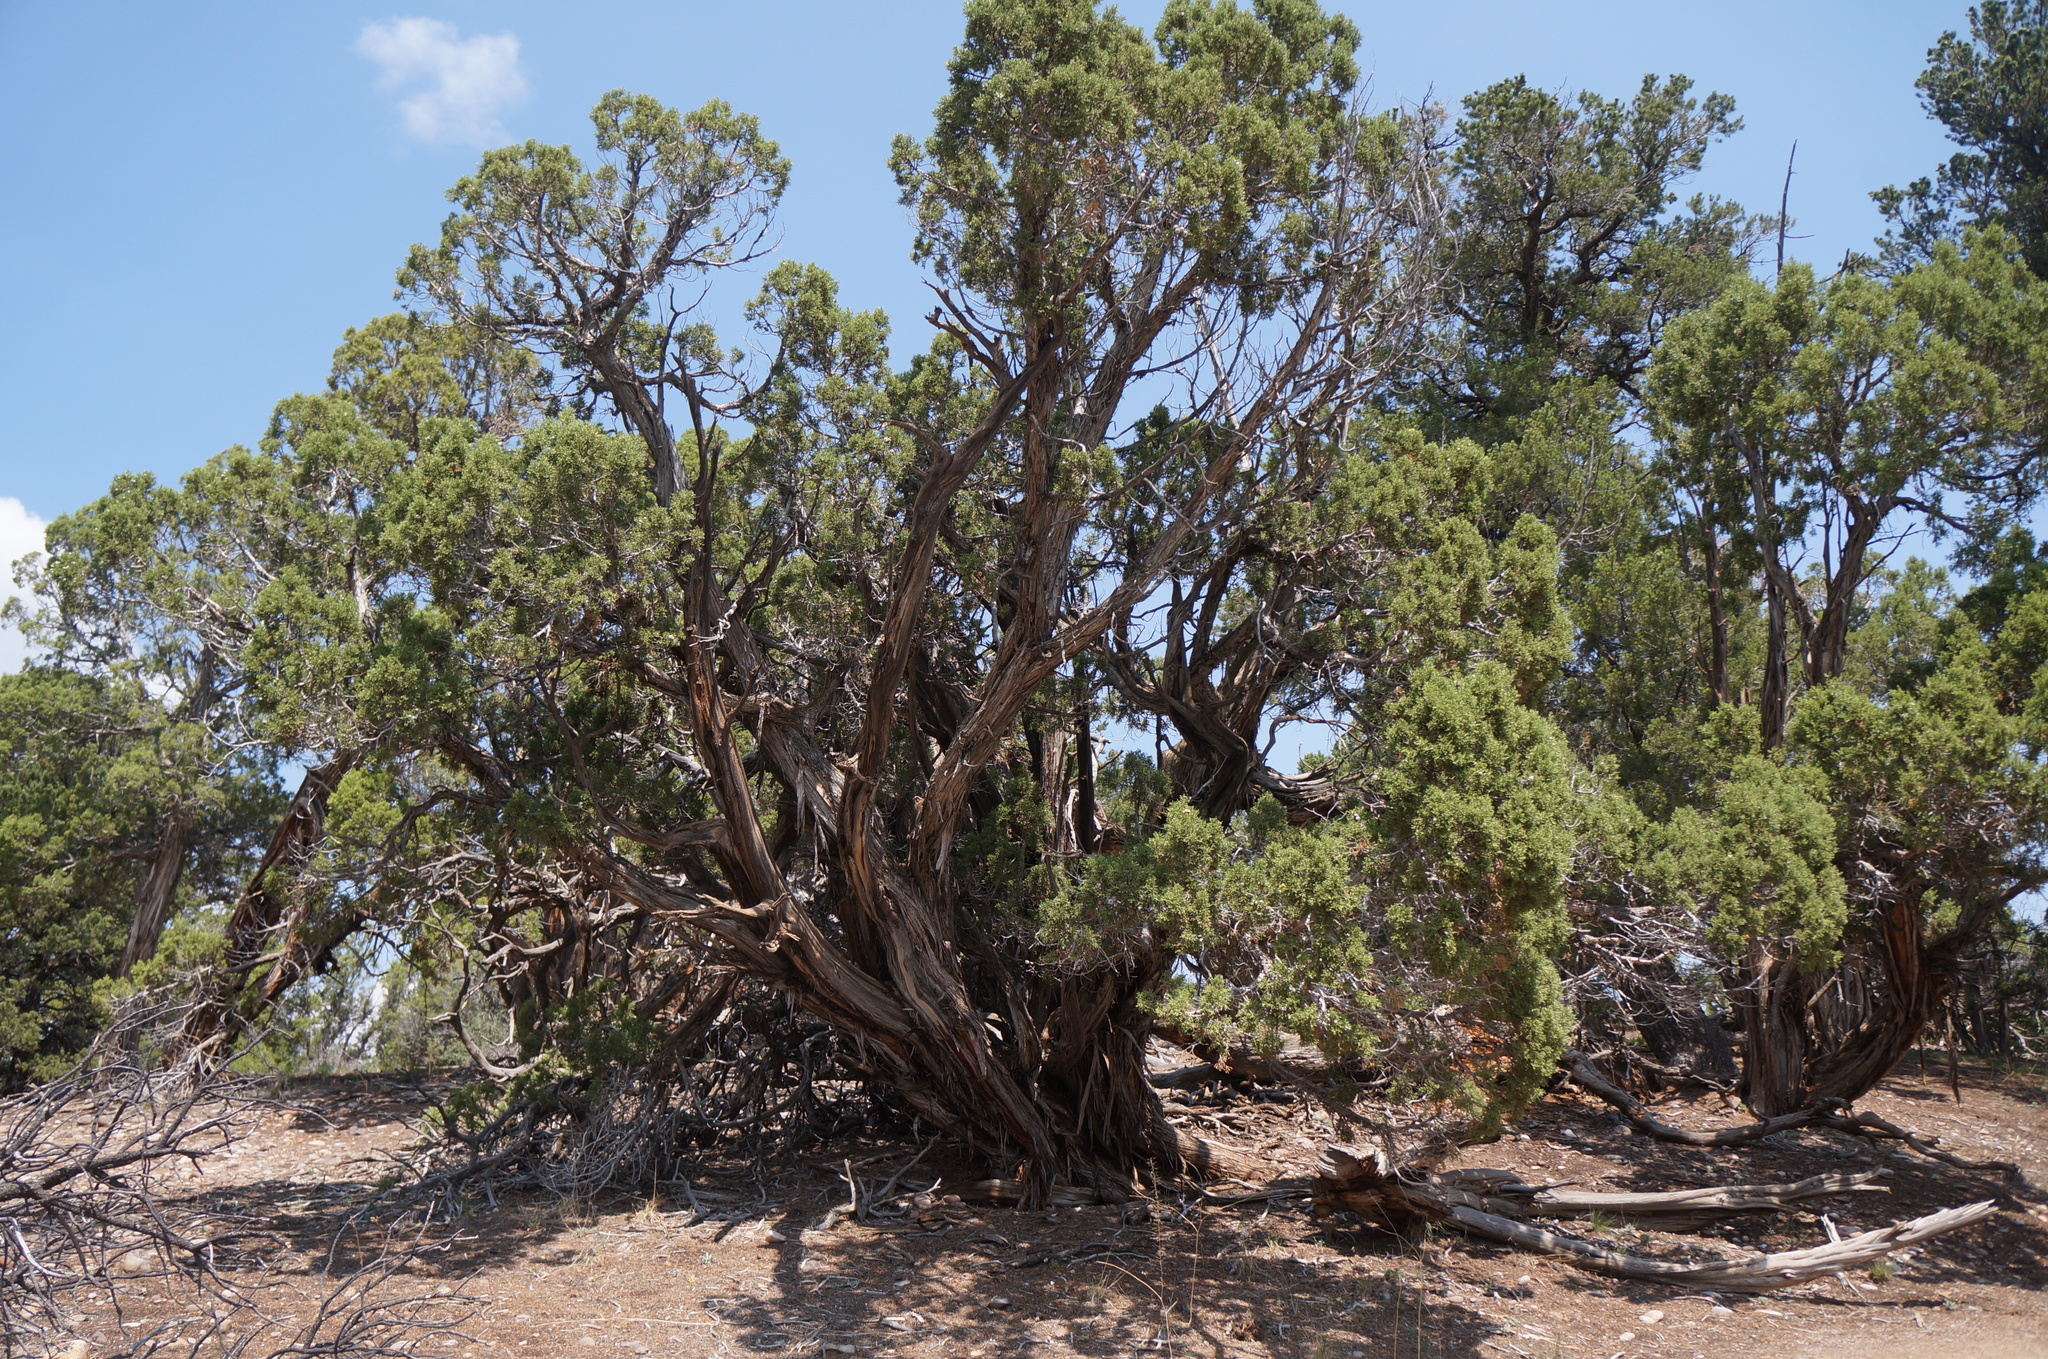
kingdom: Plantae
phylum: Tracheophyta
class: Pinopsida
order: Pinales
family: Cupressaceae
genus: Juniperus
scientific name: Juniperus osteosperma
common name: Utah juniper
